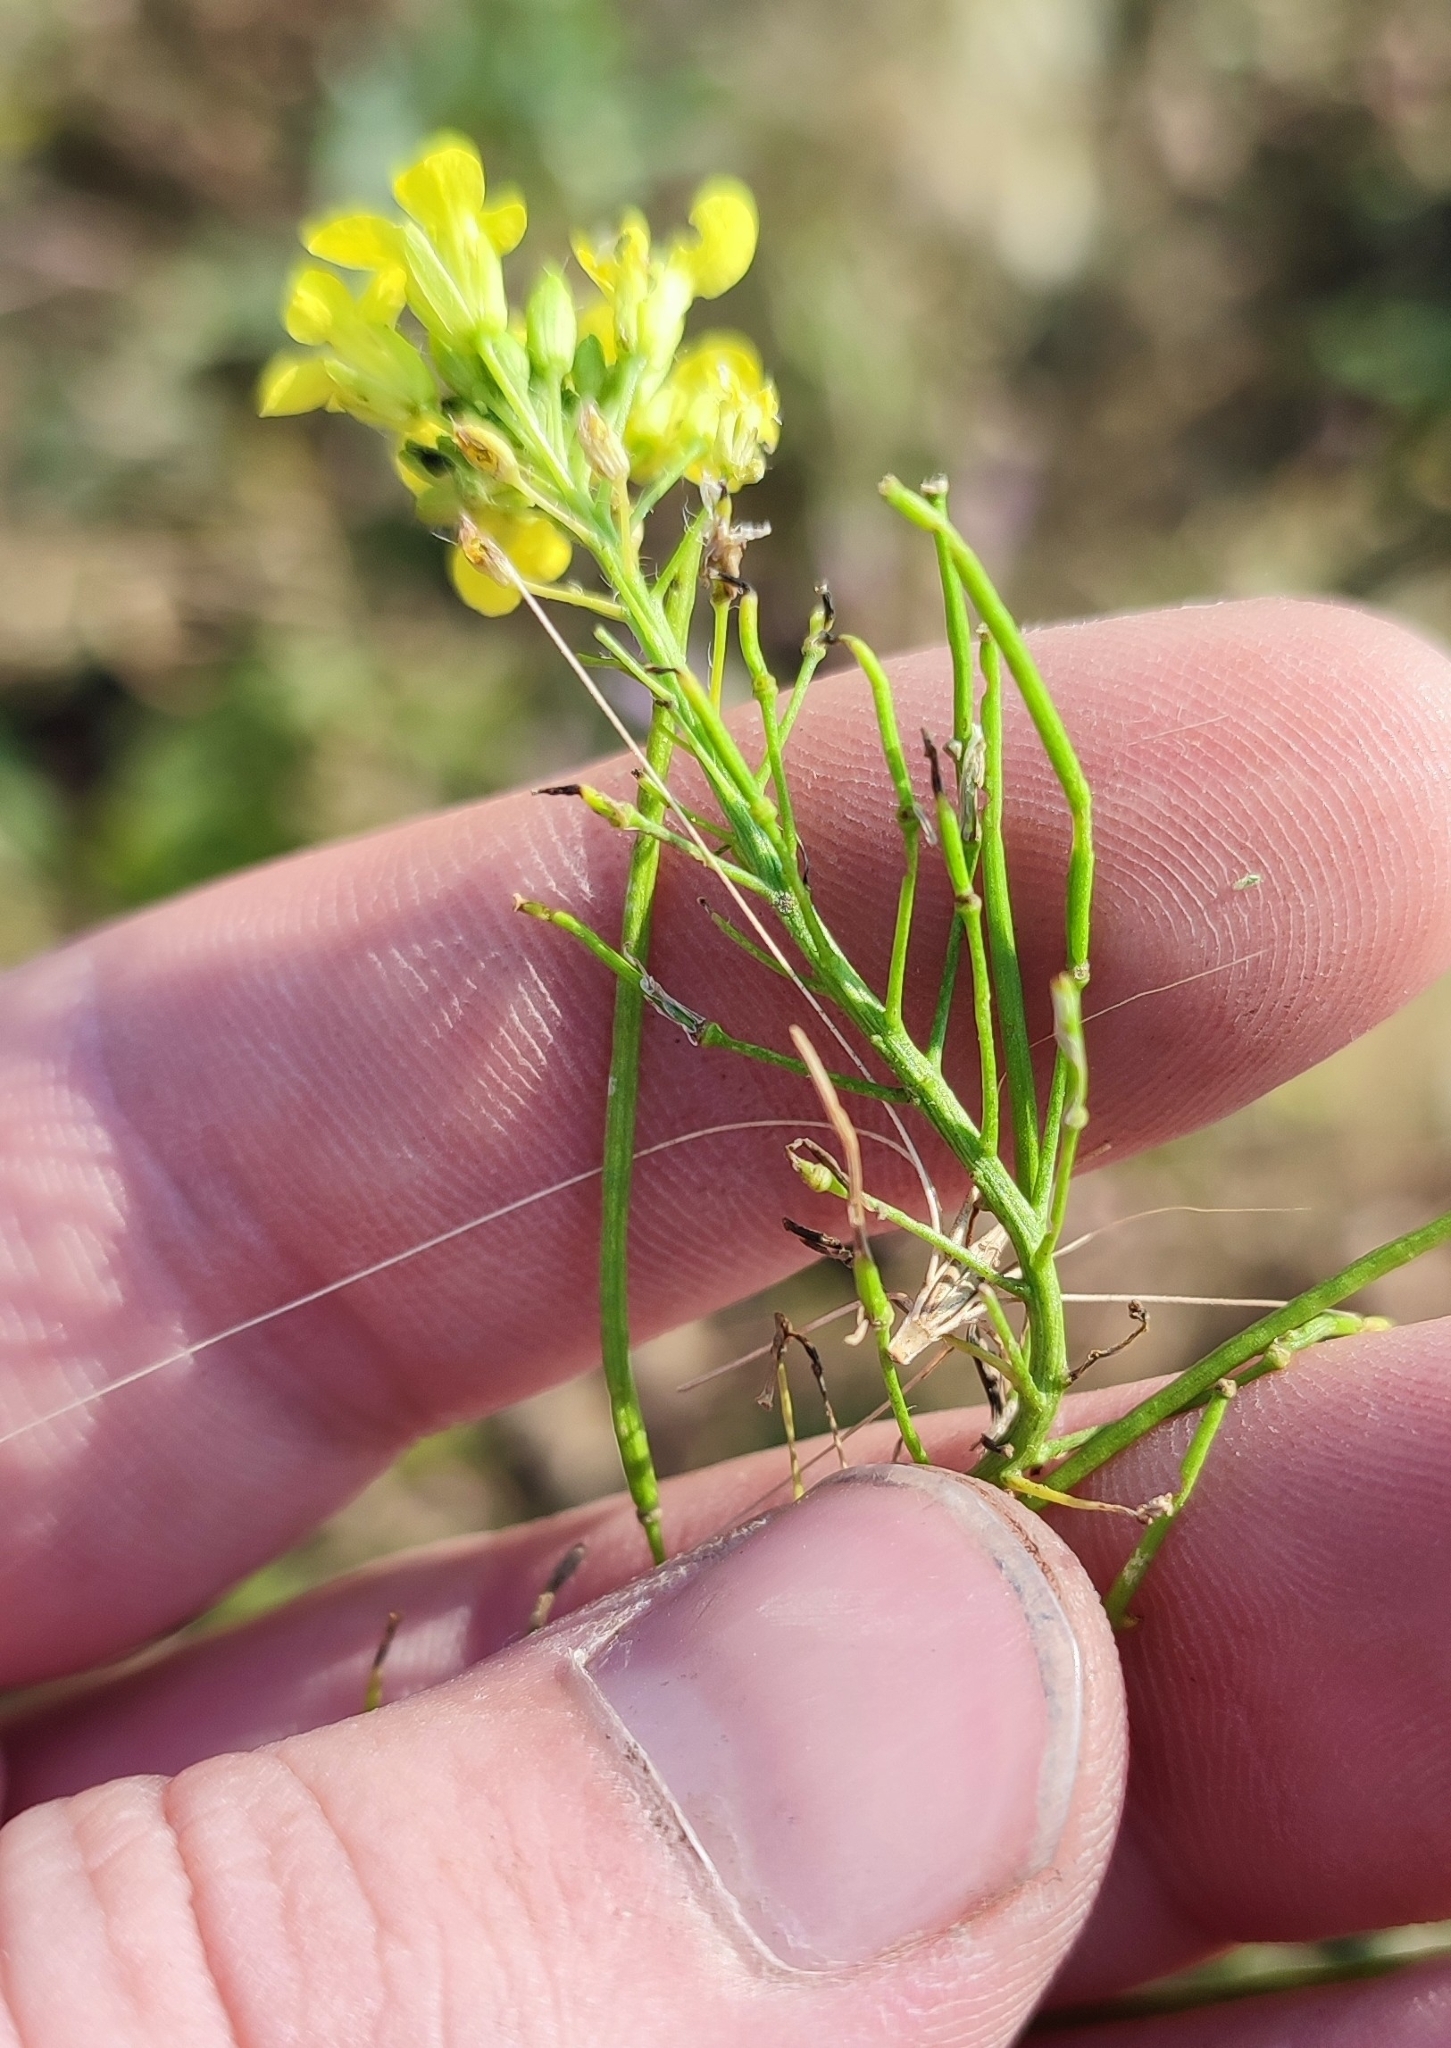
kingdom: Plantae
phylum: Tracheophyta
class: Magnoliopsida
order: Brassicales
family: Brassicaceae
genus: Sisymbrium
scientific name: Sisymbrium loeselii
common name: False london-rocket
